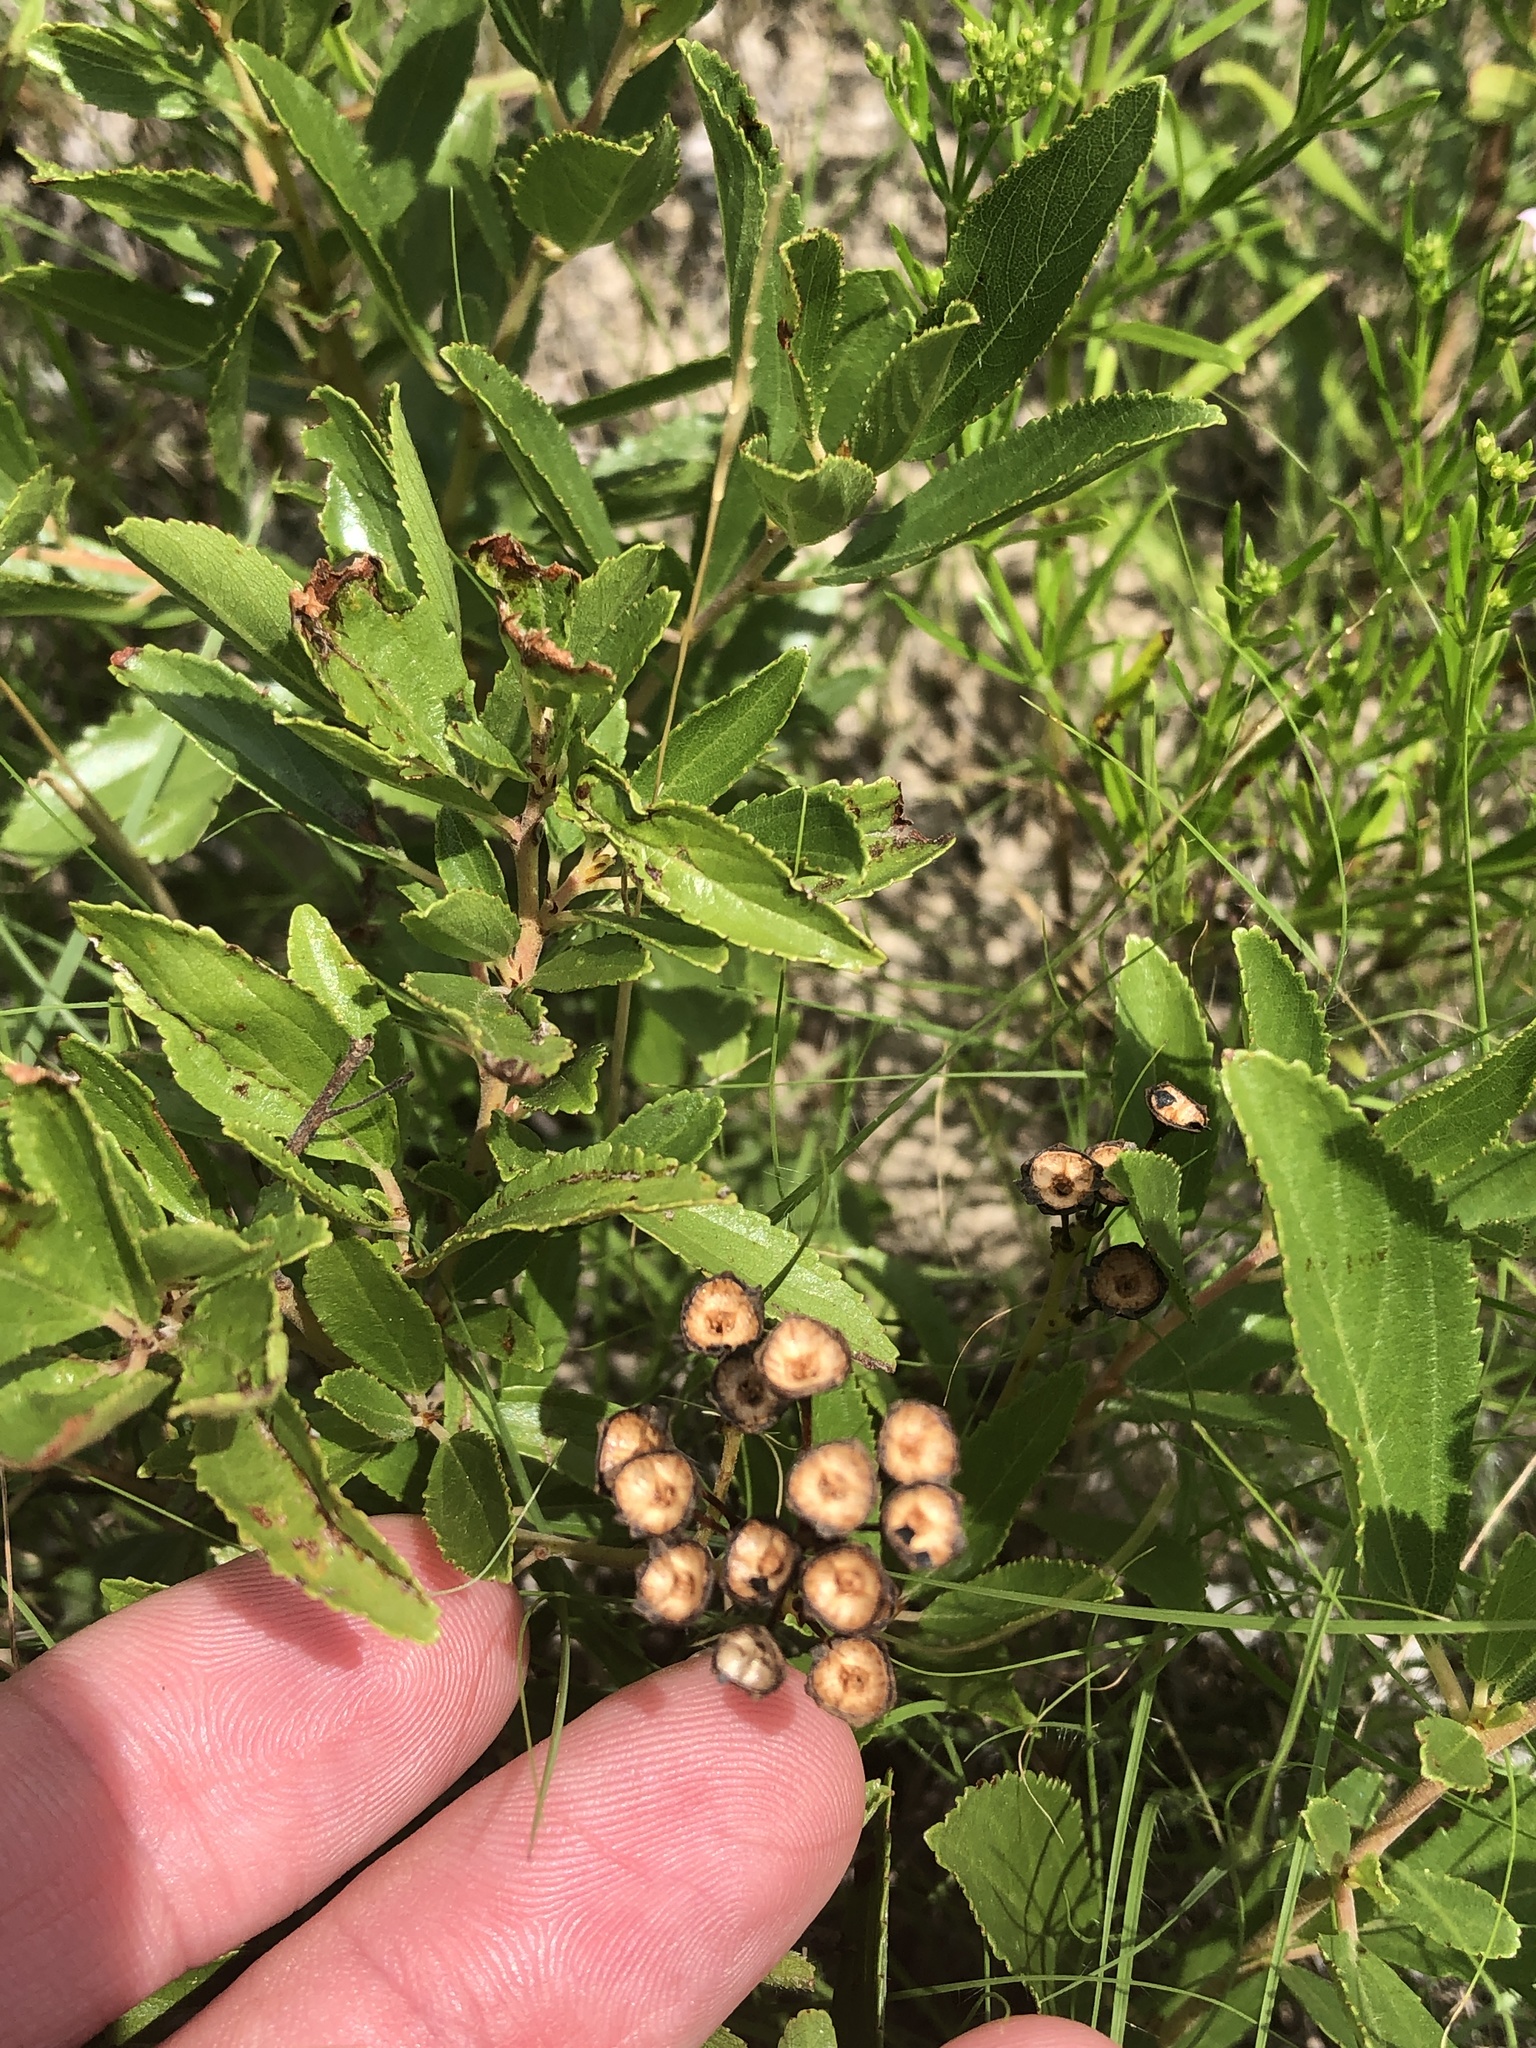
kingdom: Plantae
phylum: Tracheophyta
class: Magnoliopsida
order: Rosales
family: Rhamnaceae
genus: Ceanothus
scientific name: Ceanothus herbaceus
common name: Inland ceanothus
